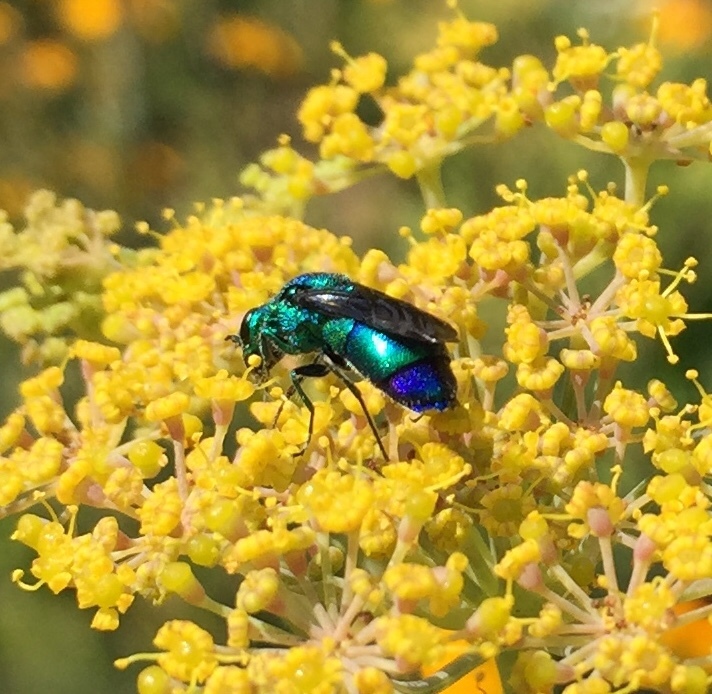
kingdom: Animalia
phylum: Arthropoda
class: Insecta
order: Hymenoptera
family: Chrysididae
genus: Chrysis
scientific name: Chrysis angolensis
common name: Cuckoo wasp
